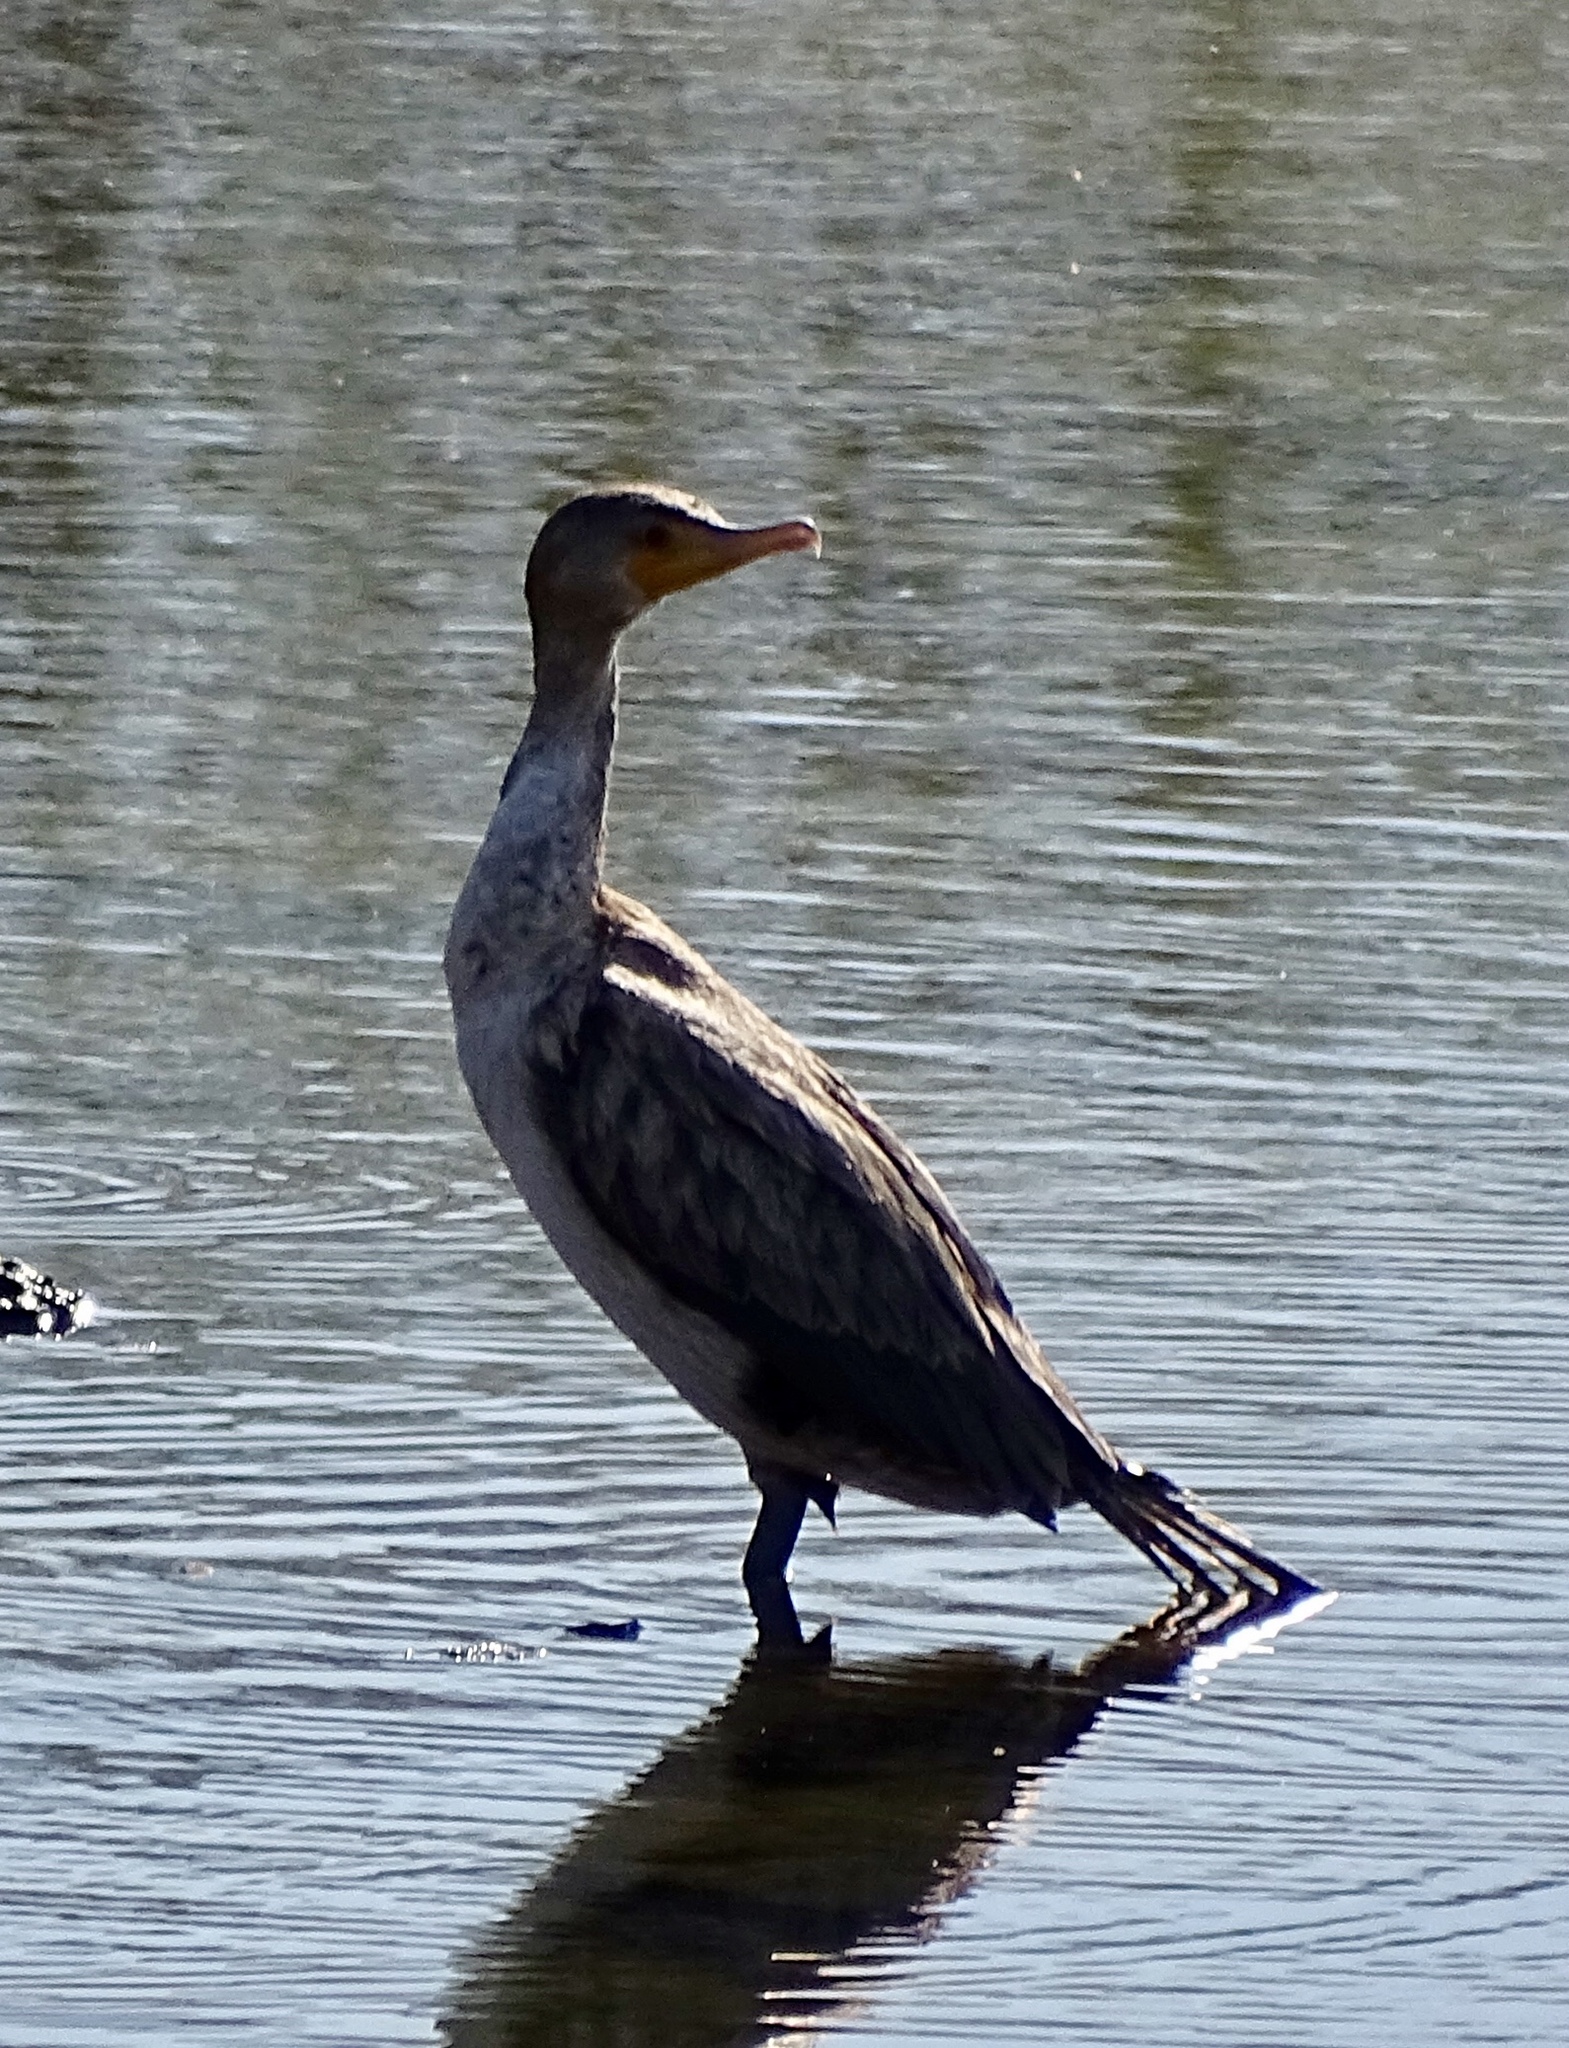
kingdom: Animalia
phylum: Chordata
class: Aves
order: Suliformes
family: Phalacrocoracidae
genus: Phalacrocorax
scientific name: Phalacrocorax auritus
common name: Double-crested cormorant
